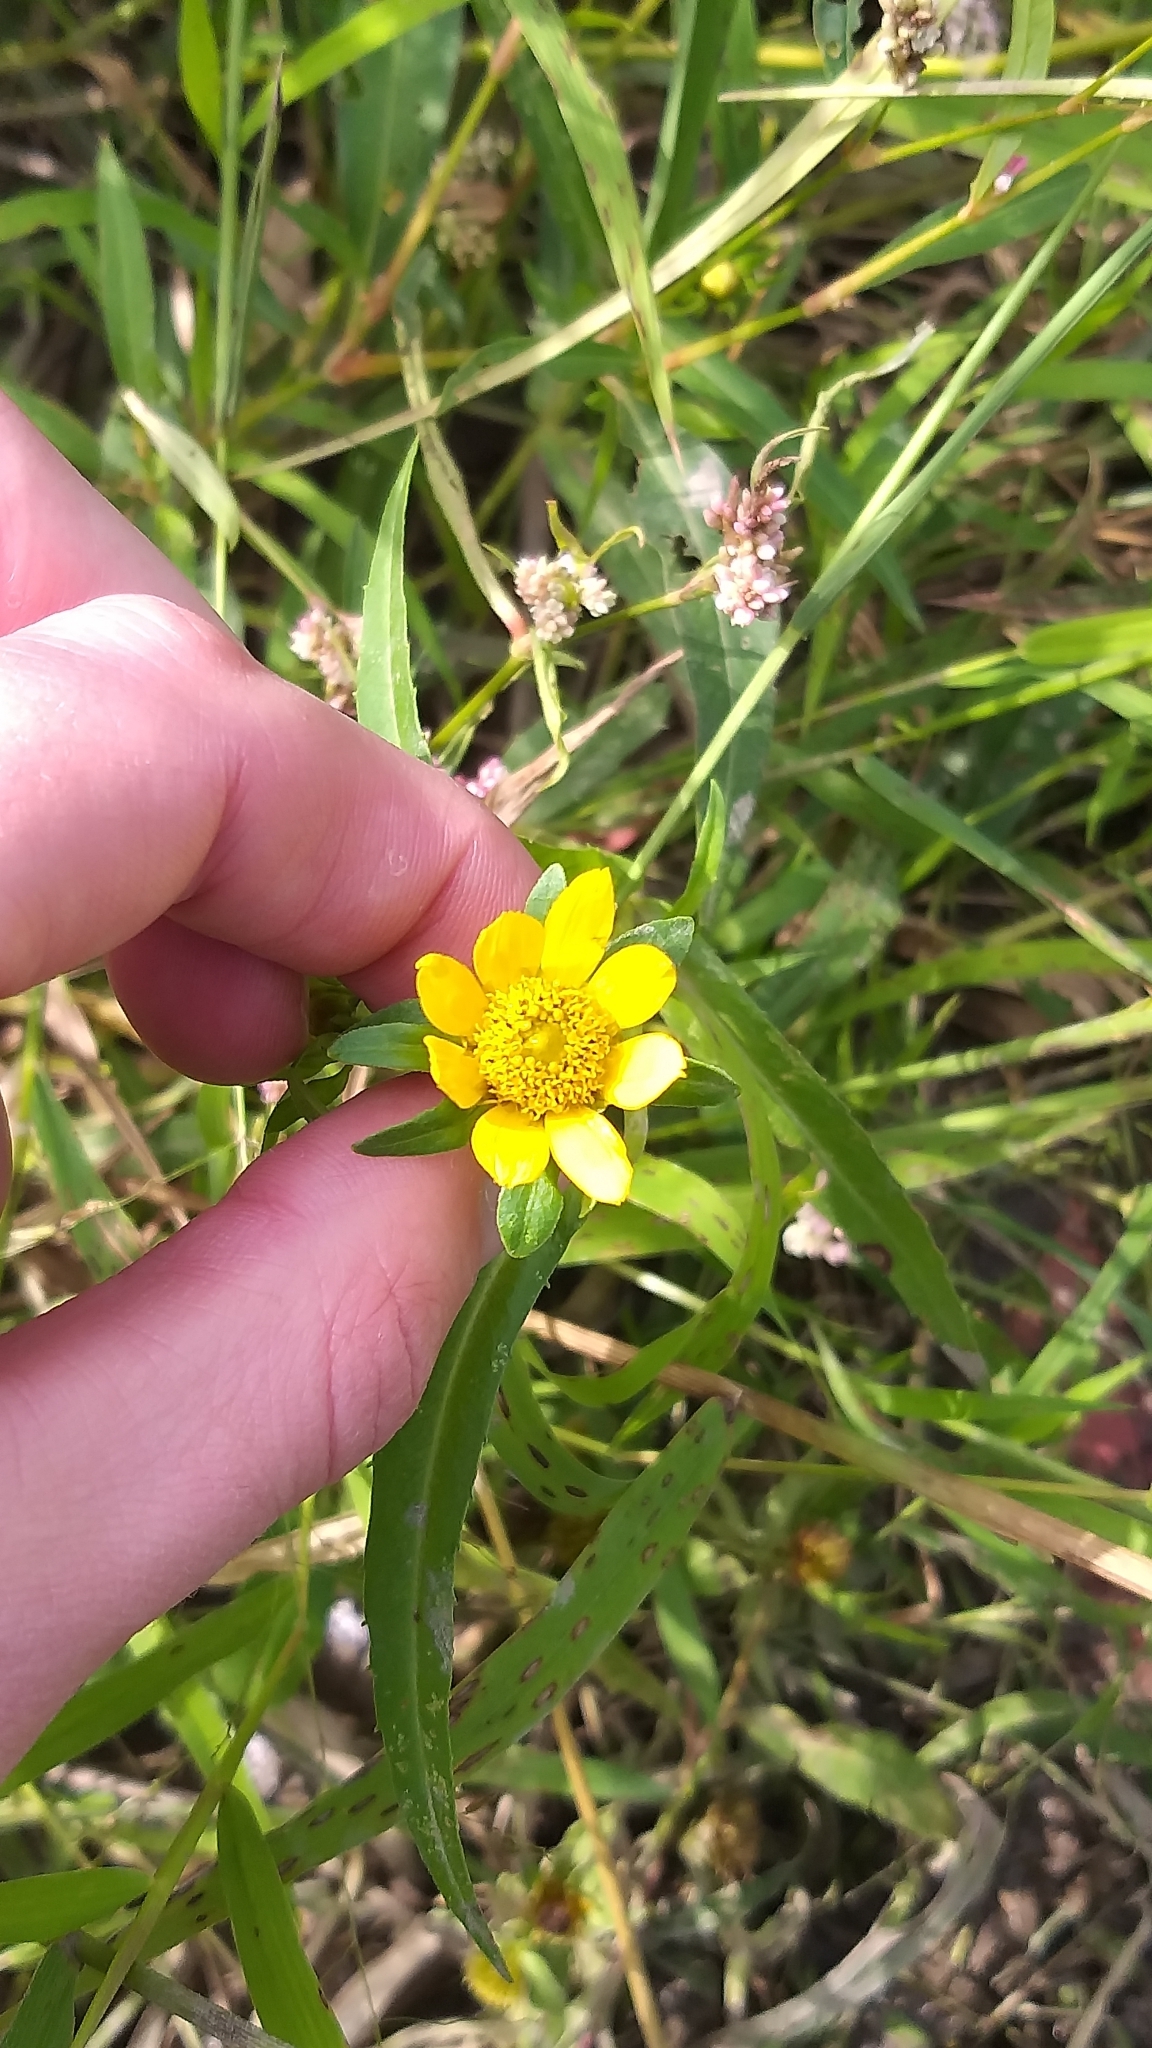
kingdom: Plantae
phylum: Tracheophyta
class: Magnoliopsida
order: Asterales
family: Asteraceae
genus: Bidens
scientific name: Bidens cernua
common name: Nodding bur-marigold
